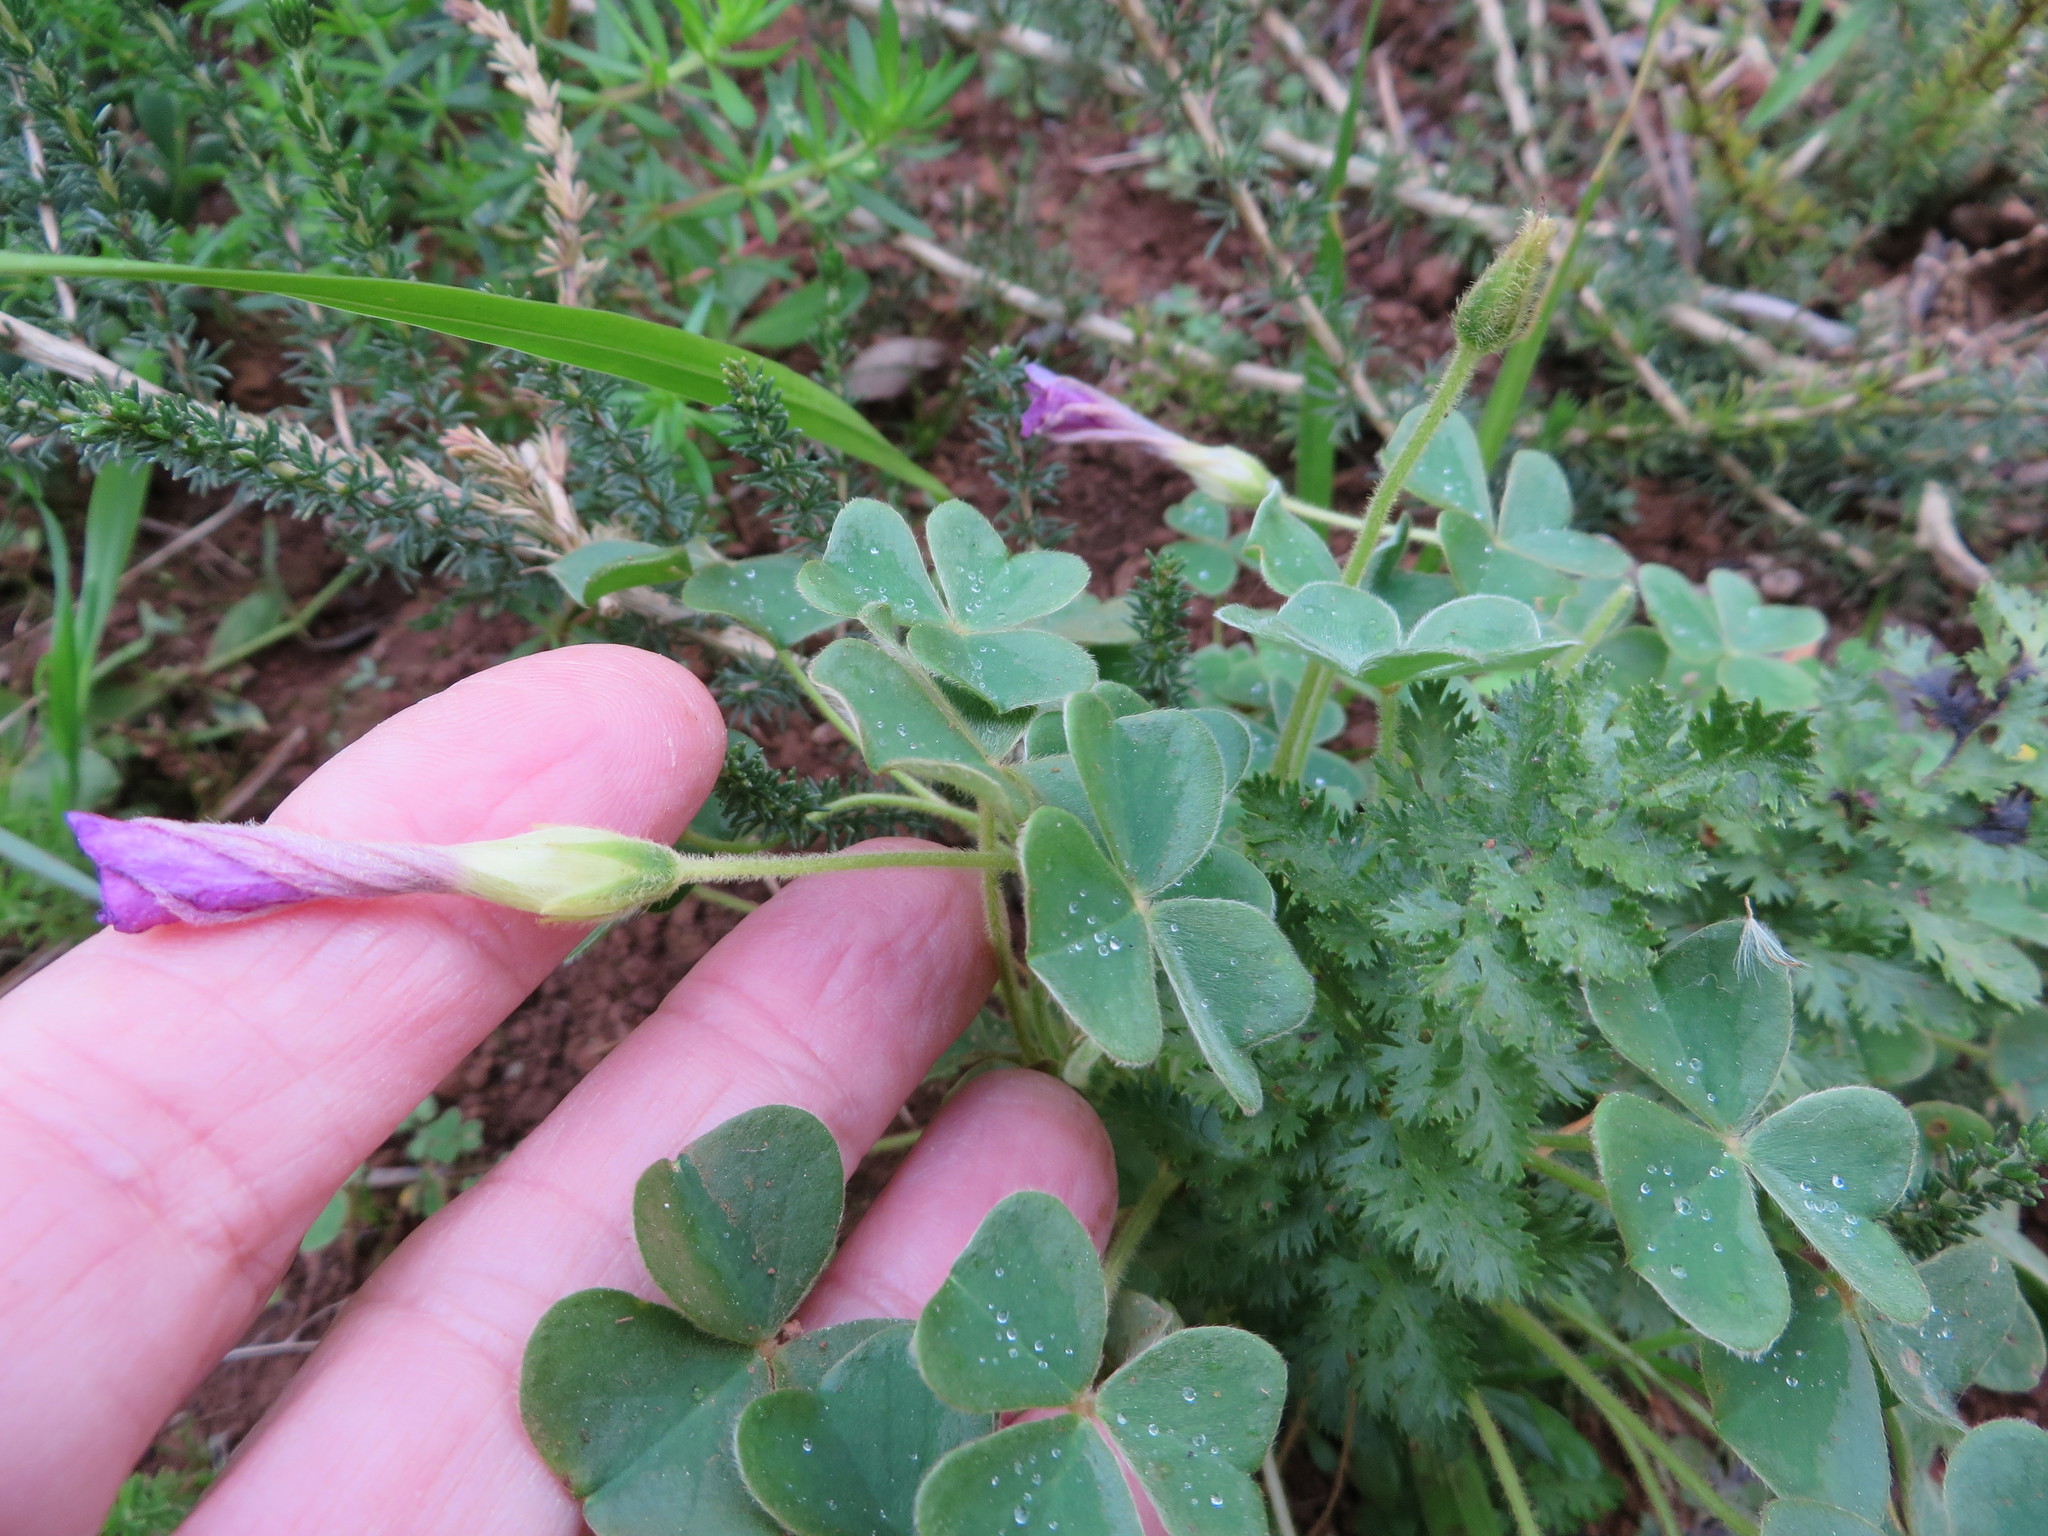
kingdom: Plantae
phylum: Tracheophyta
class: Magnoliopsida
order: Oxalidales
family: Oxalidaceae
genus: Oxalis
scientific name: Oxalis lanata
